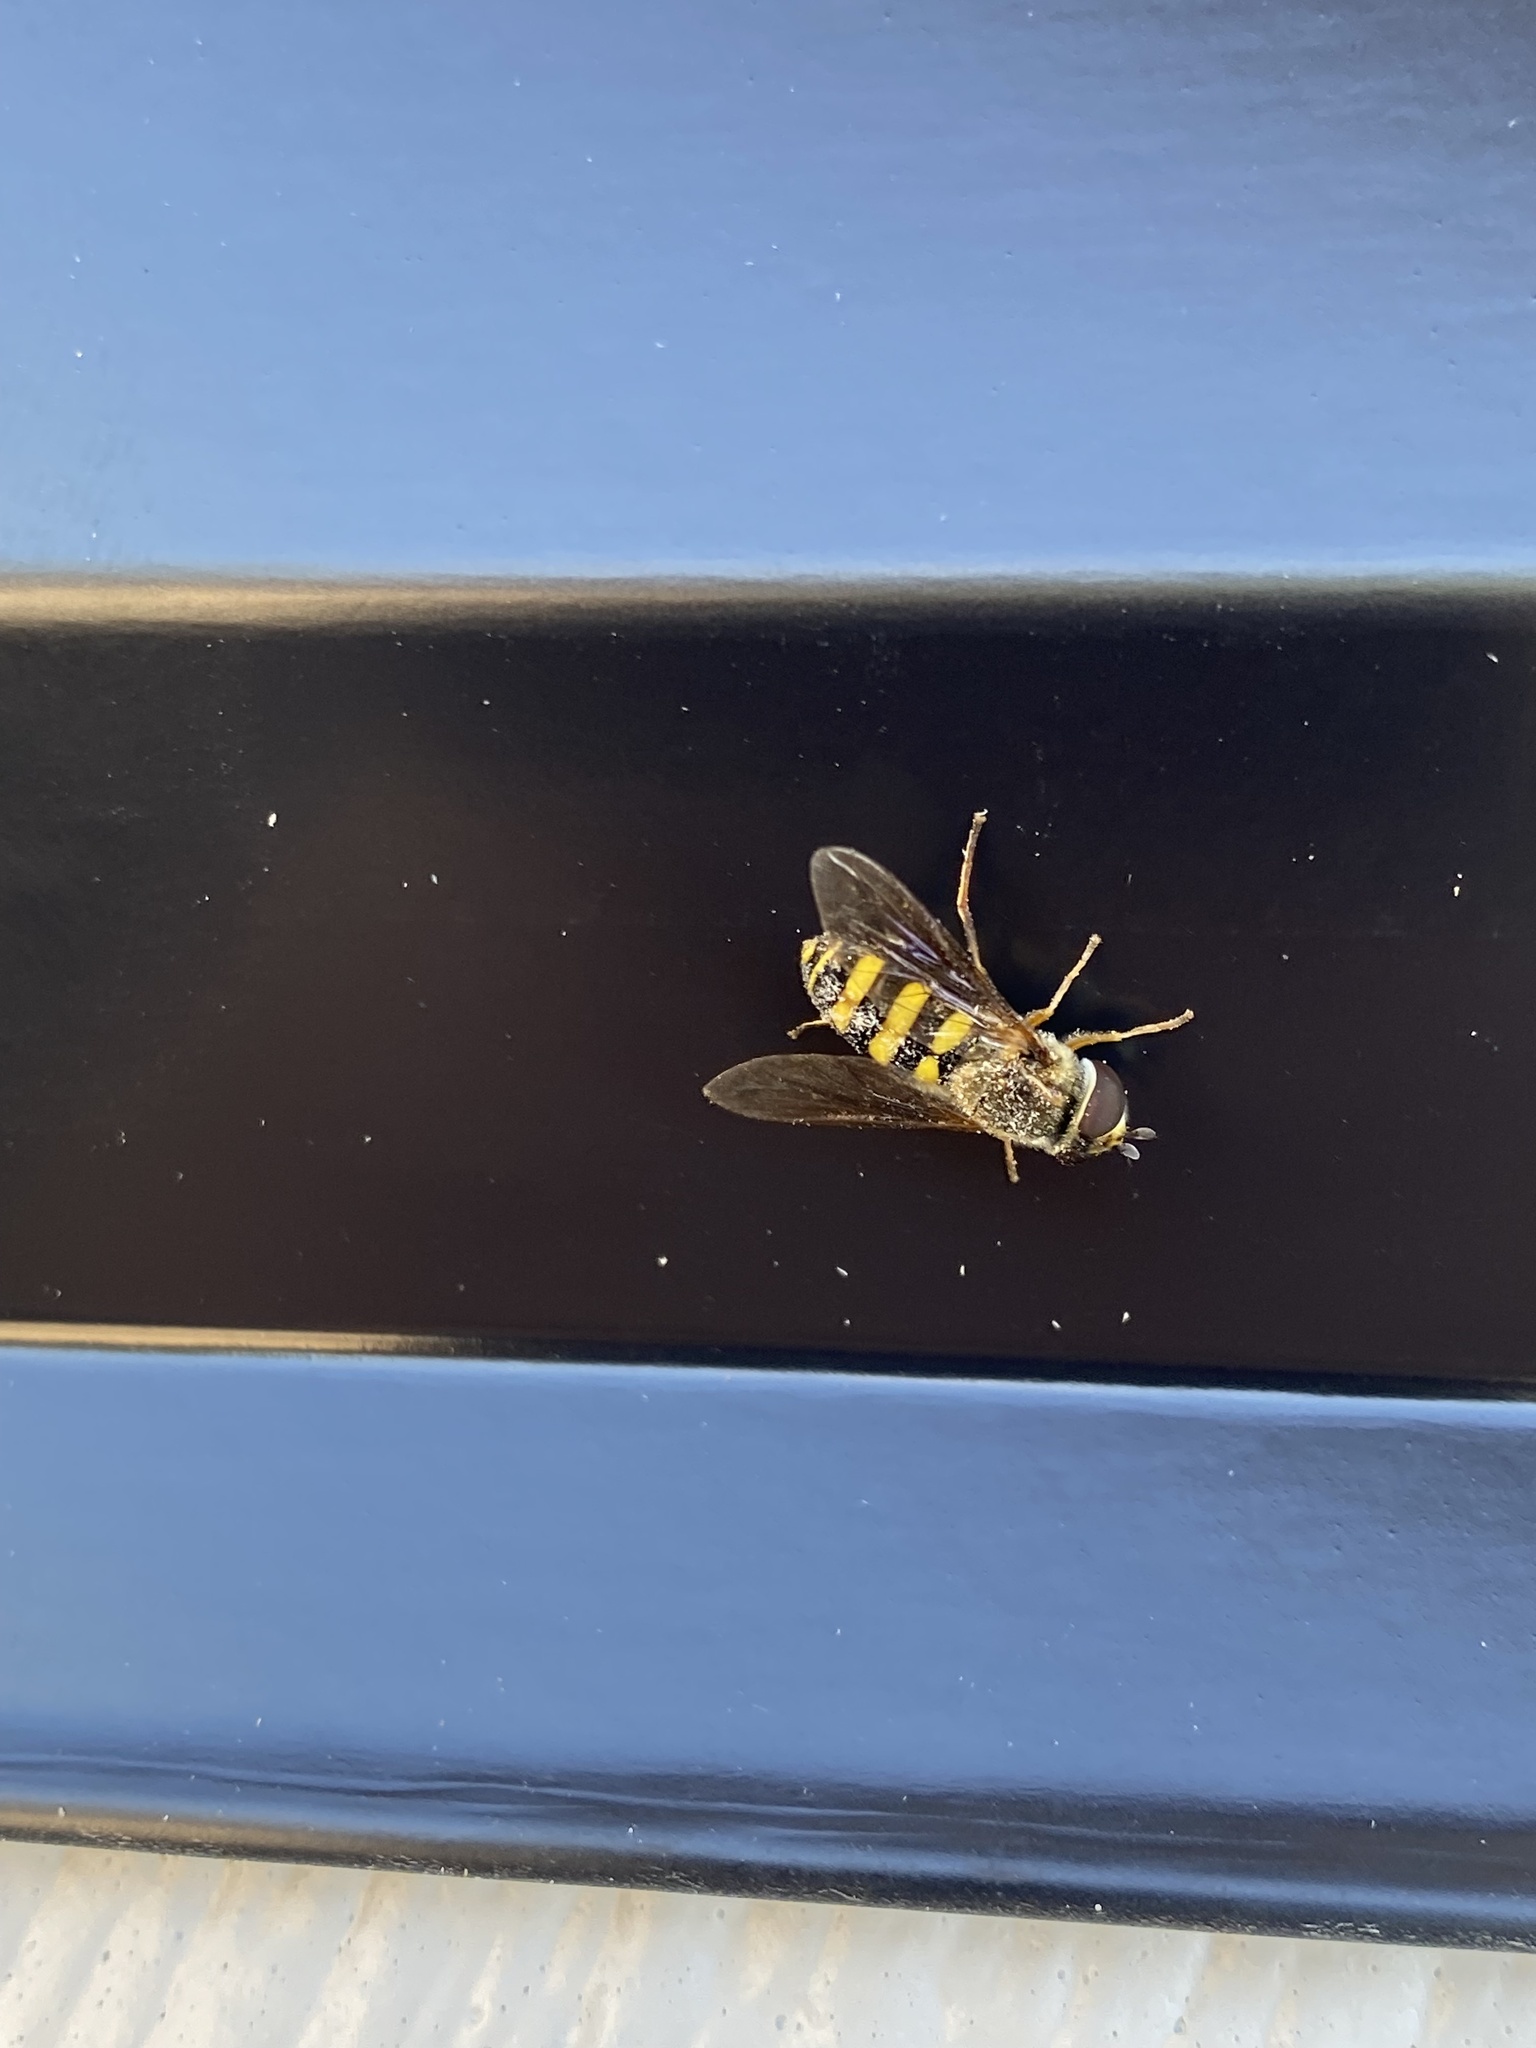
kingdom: Animalia
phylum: Arthropoda
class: Insecta
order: Diptera
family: Syrphidae
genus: Eupeodes
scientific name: Eupeodes
